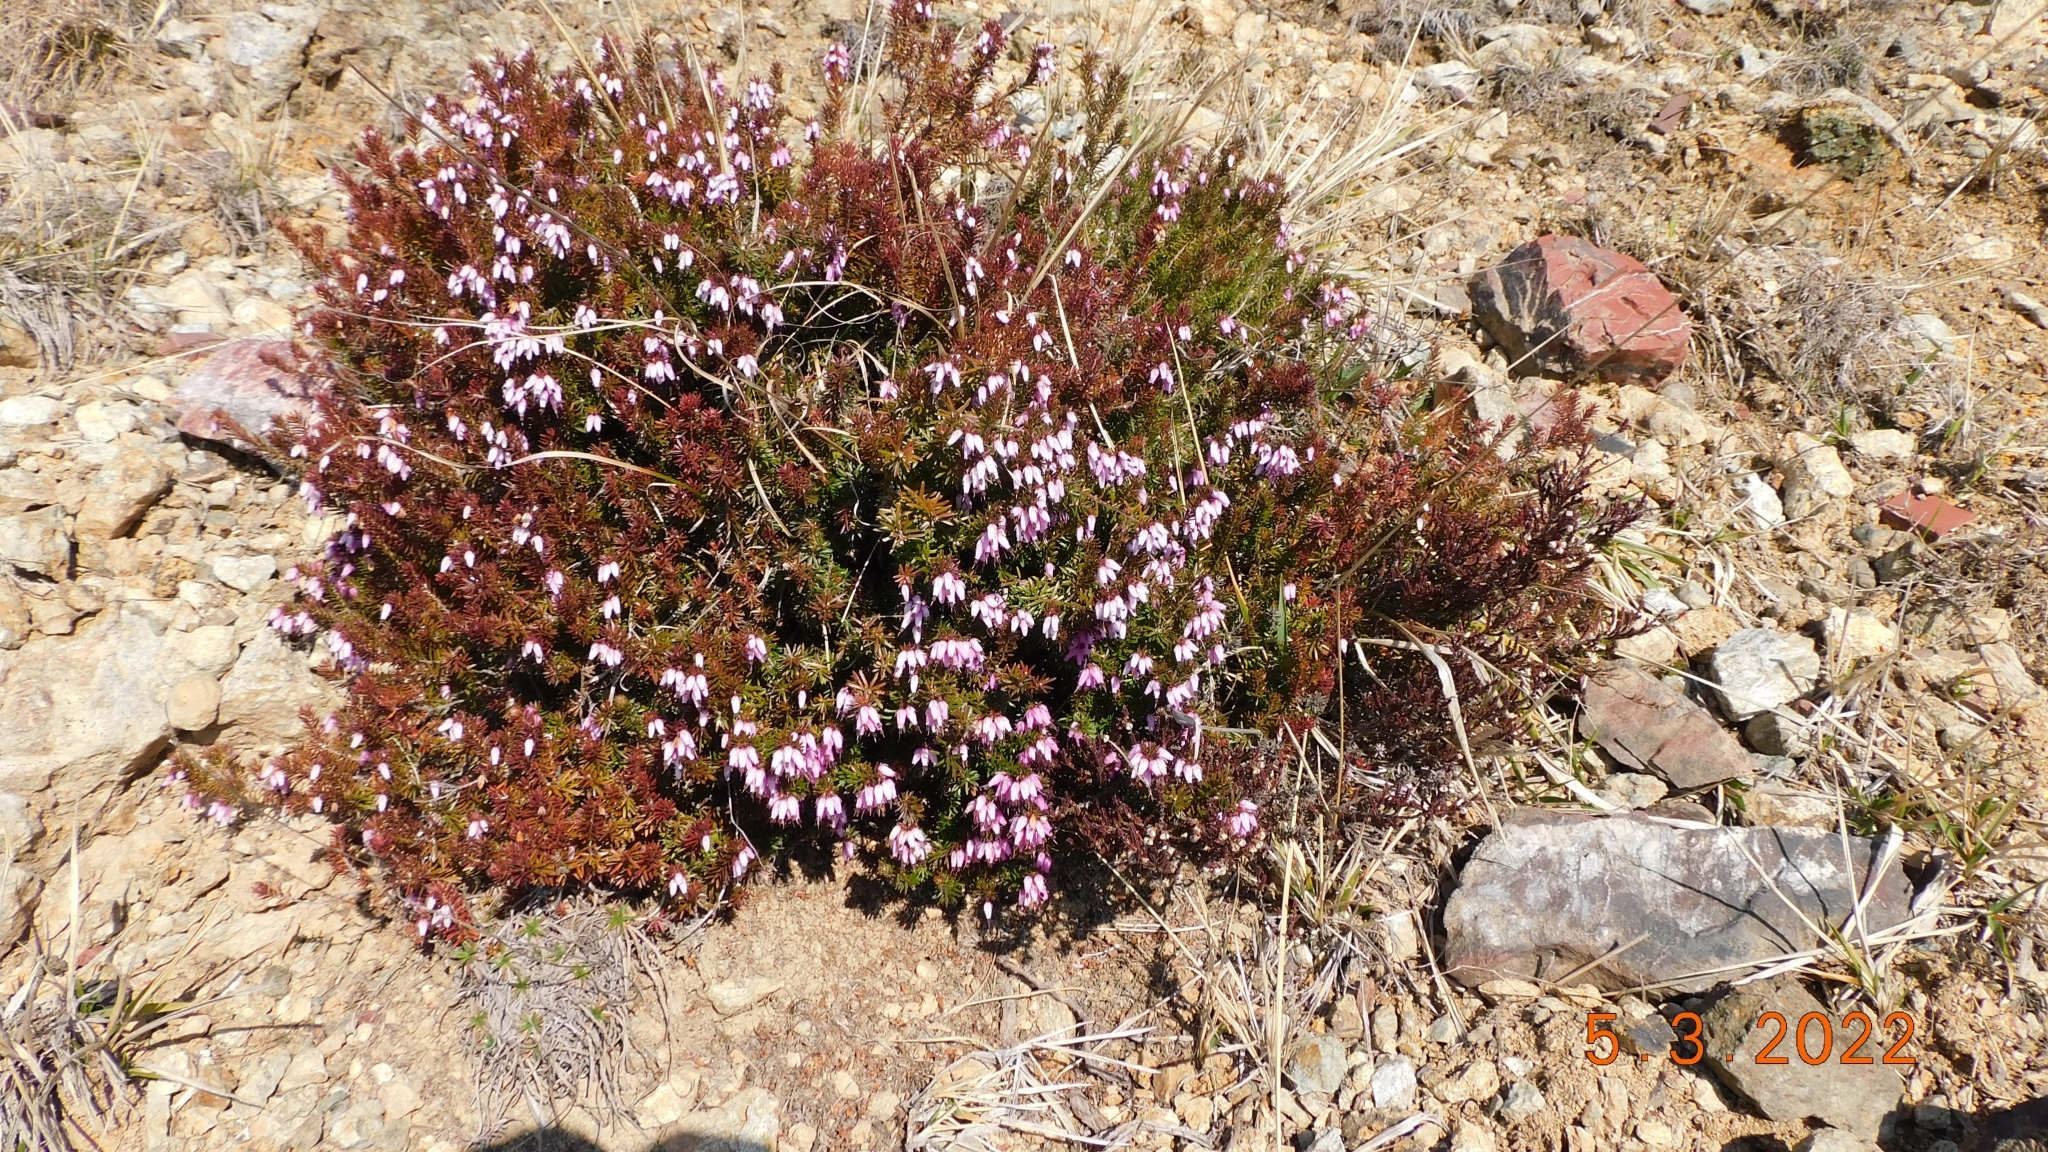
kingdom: Plantae
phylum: Tracheophyta
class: Magnoliopsida
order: Ericales
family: Ericaceae
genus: Erica
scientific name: Erica carnea
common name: Winter heath
